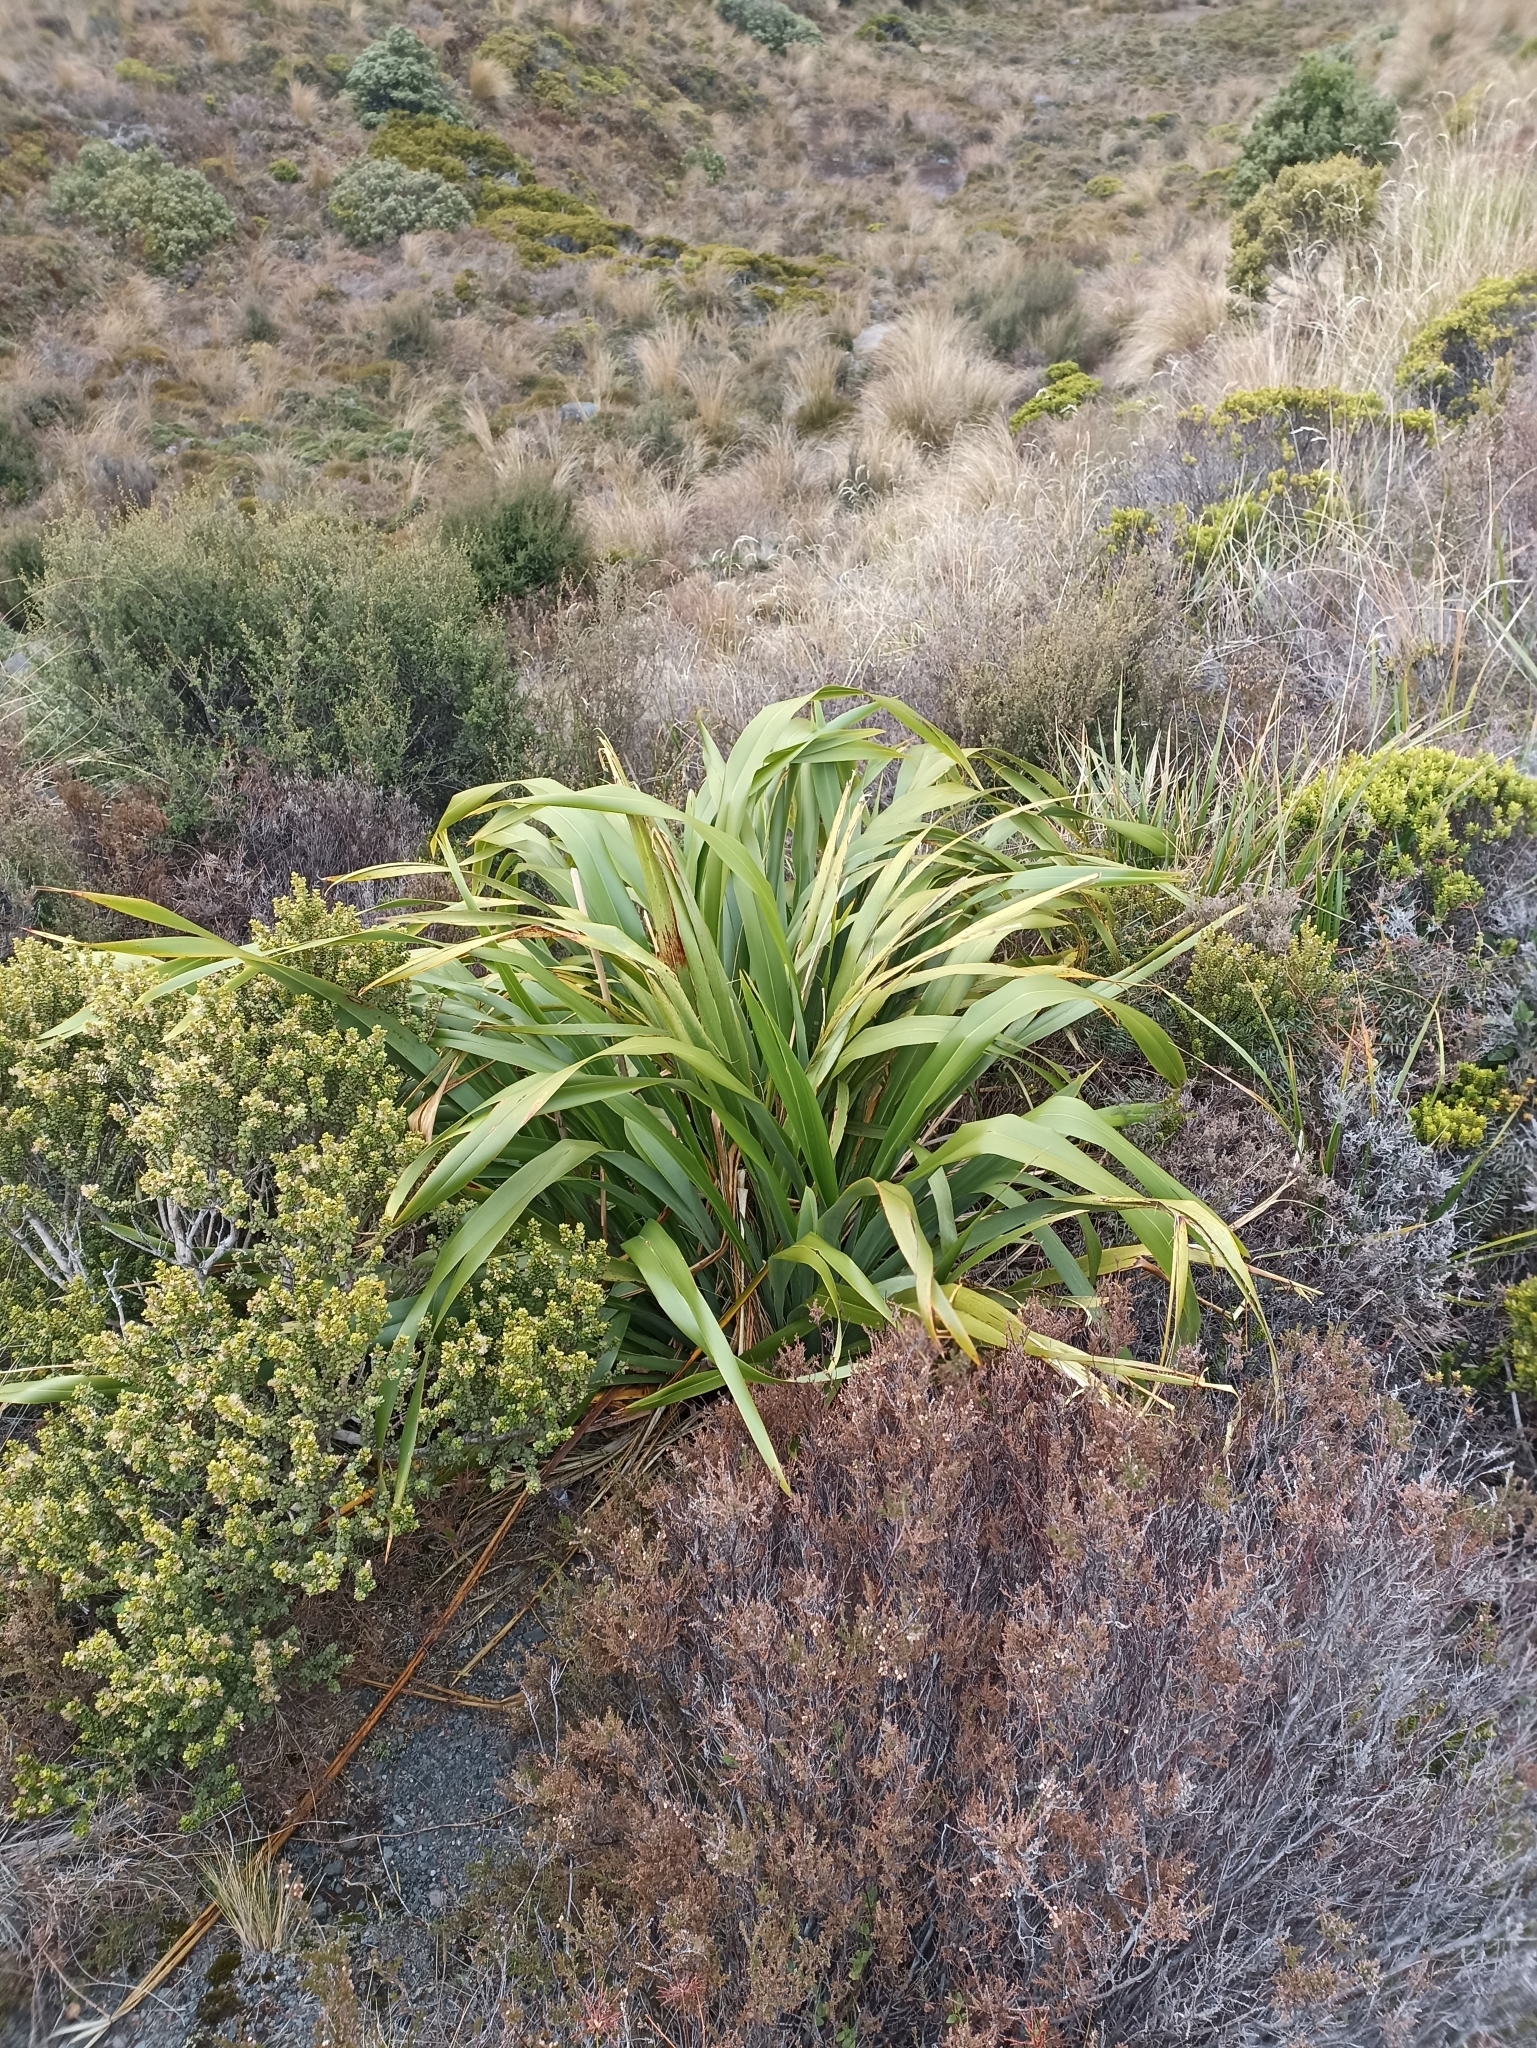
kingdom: Plantae
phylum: Tracheophyta
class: Liliopsida
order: Asparagales
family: Asphodelaceae
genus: Phormium
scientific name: Phormium colensoi
